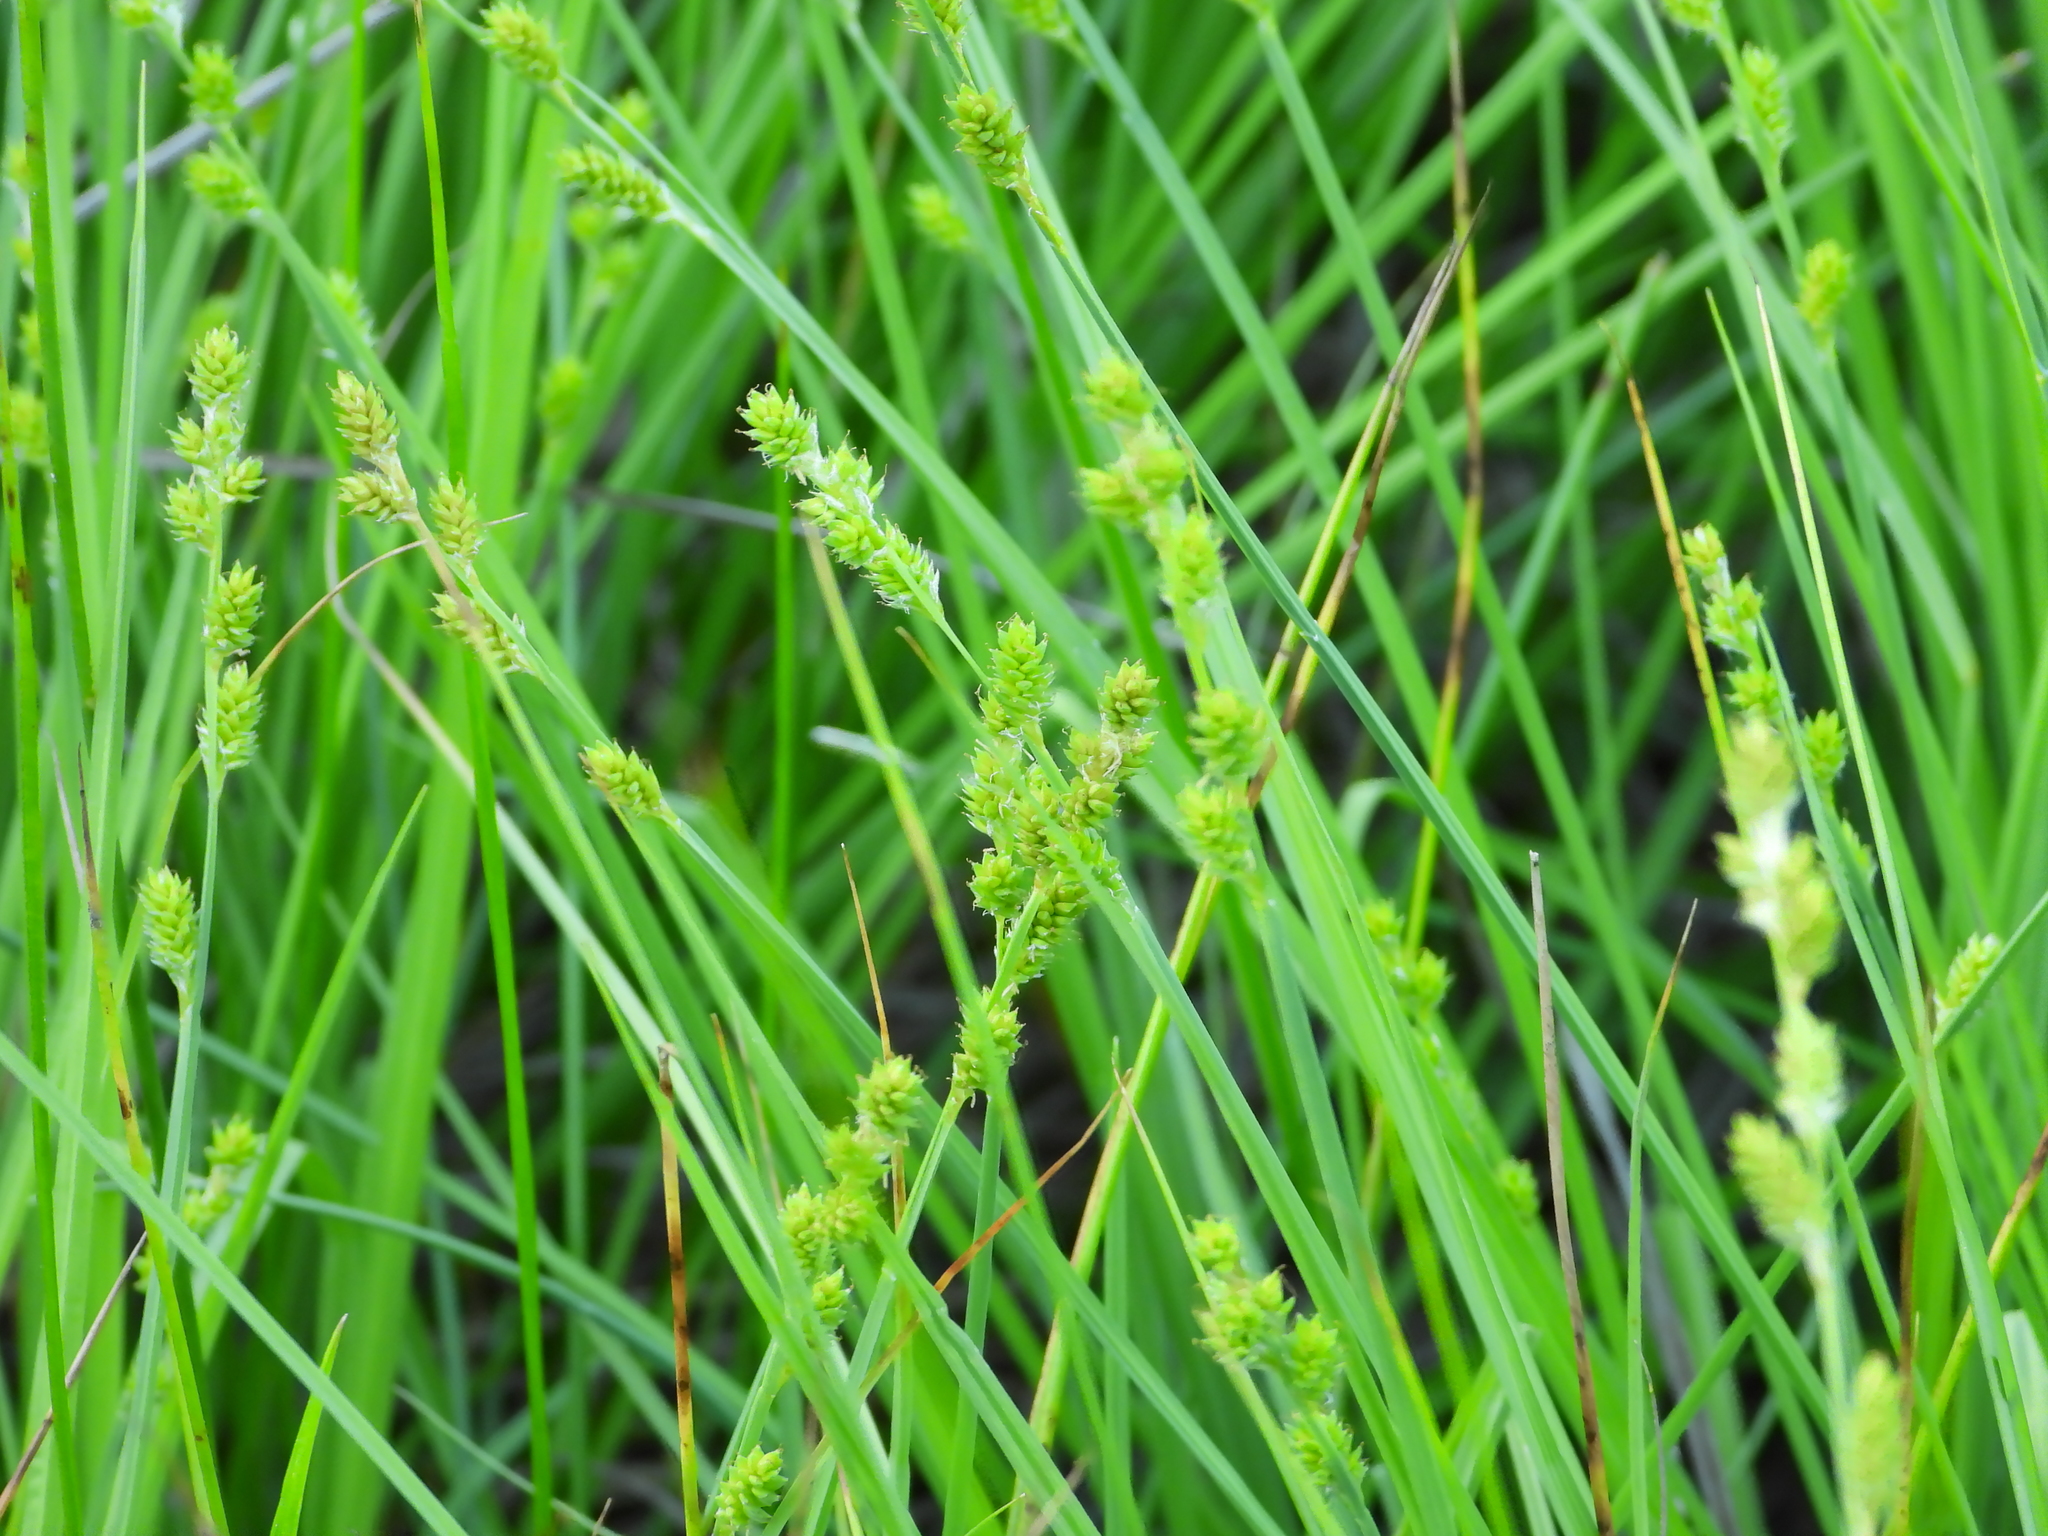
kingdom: Plantae
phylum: Tracheophyta
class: Liliopsida
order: Poales
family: Cyperaceae
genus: Carex
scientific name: Carex canescens
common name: White sedge
